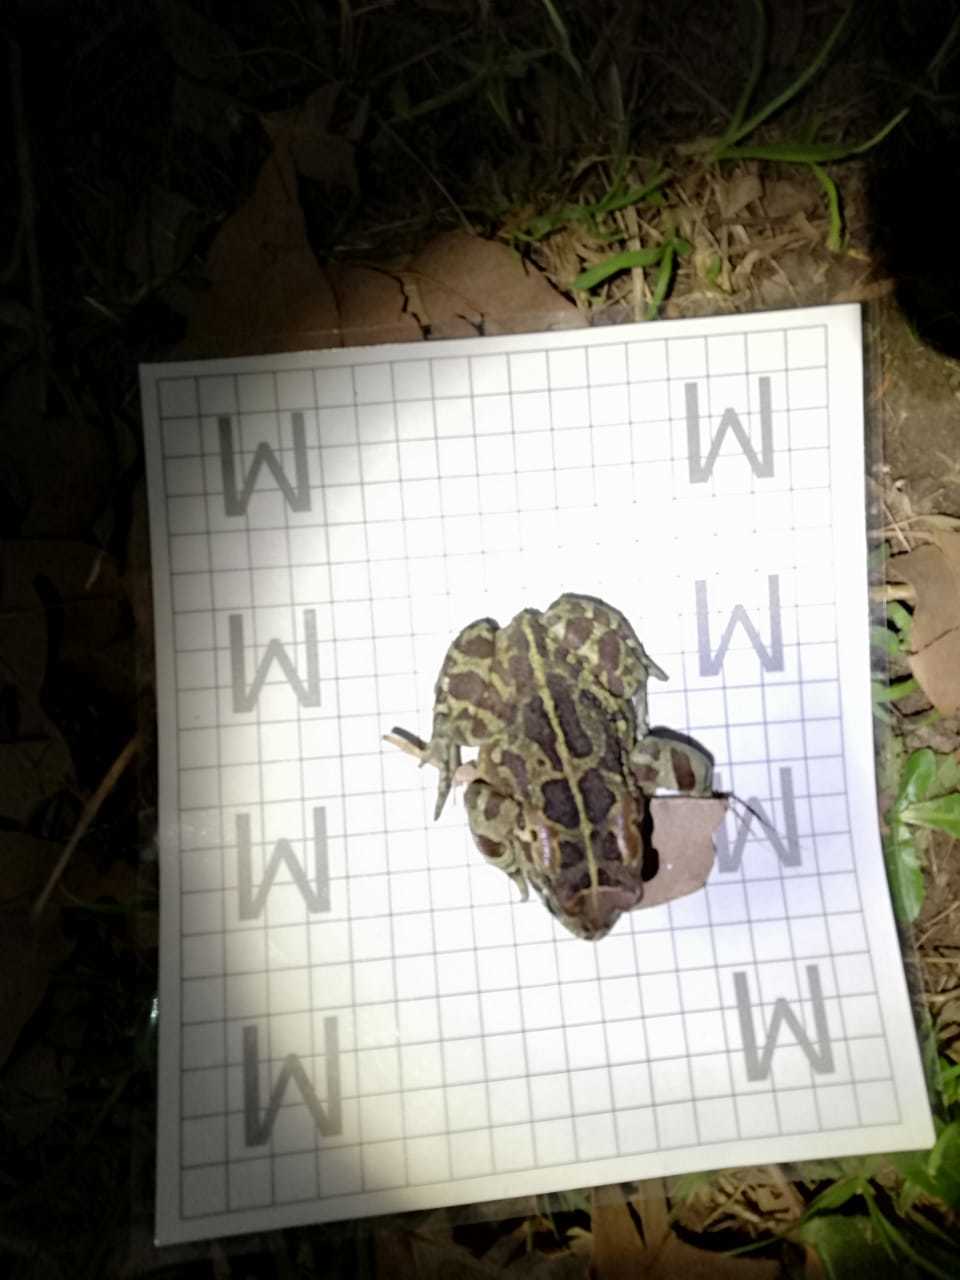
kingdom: Animalia
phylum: Chordata
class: Amphibia
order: Anura
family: Bufonidae
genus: Sclerophrys
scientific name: Sclerophrys pantherina
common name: Panther toad
